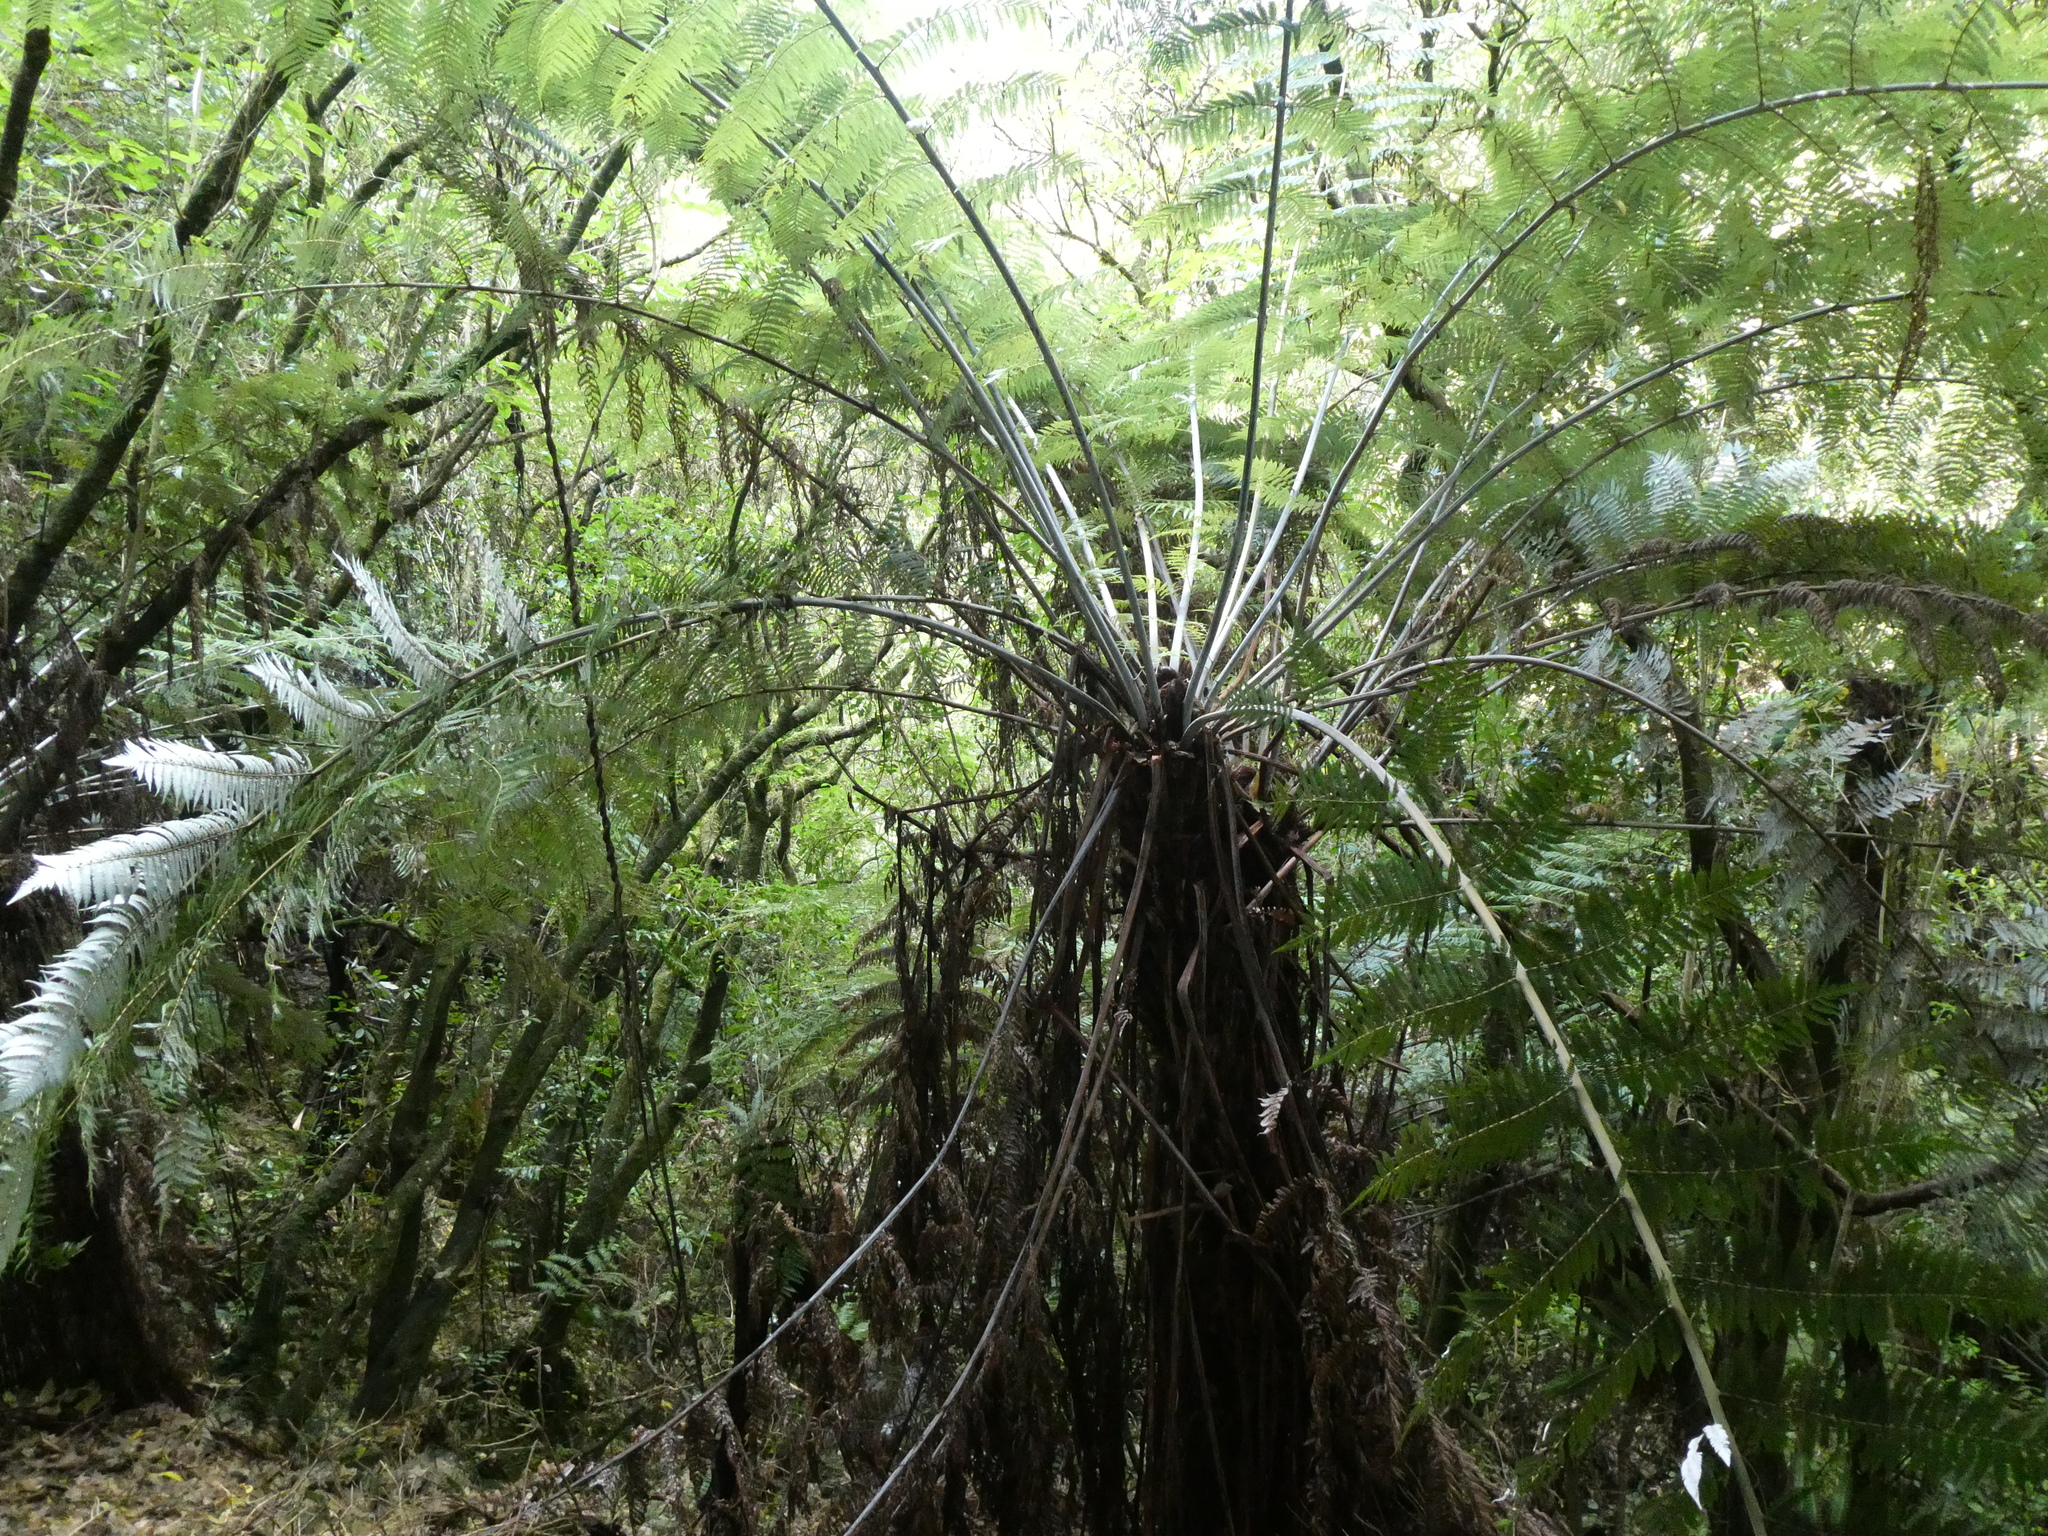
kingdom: Plantae
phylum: Tracheophyta
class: Polypodiopsida
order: Cyatheales
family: Cyatheaceae
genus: Alsophila
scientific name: Alsophila dealbata
